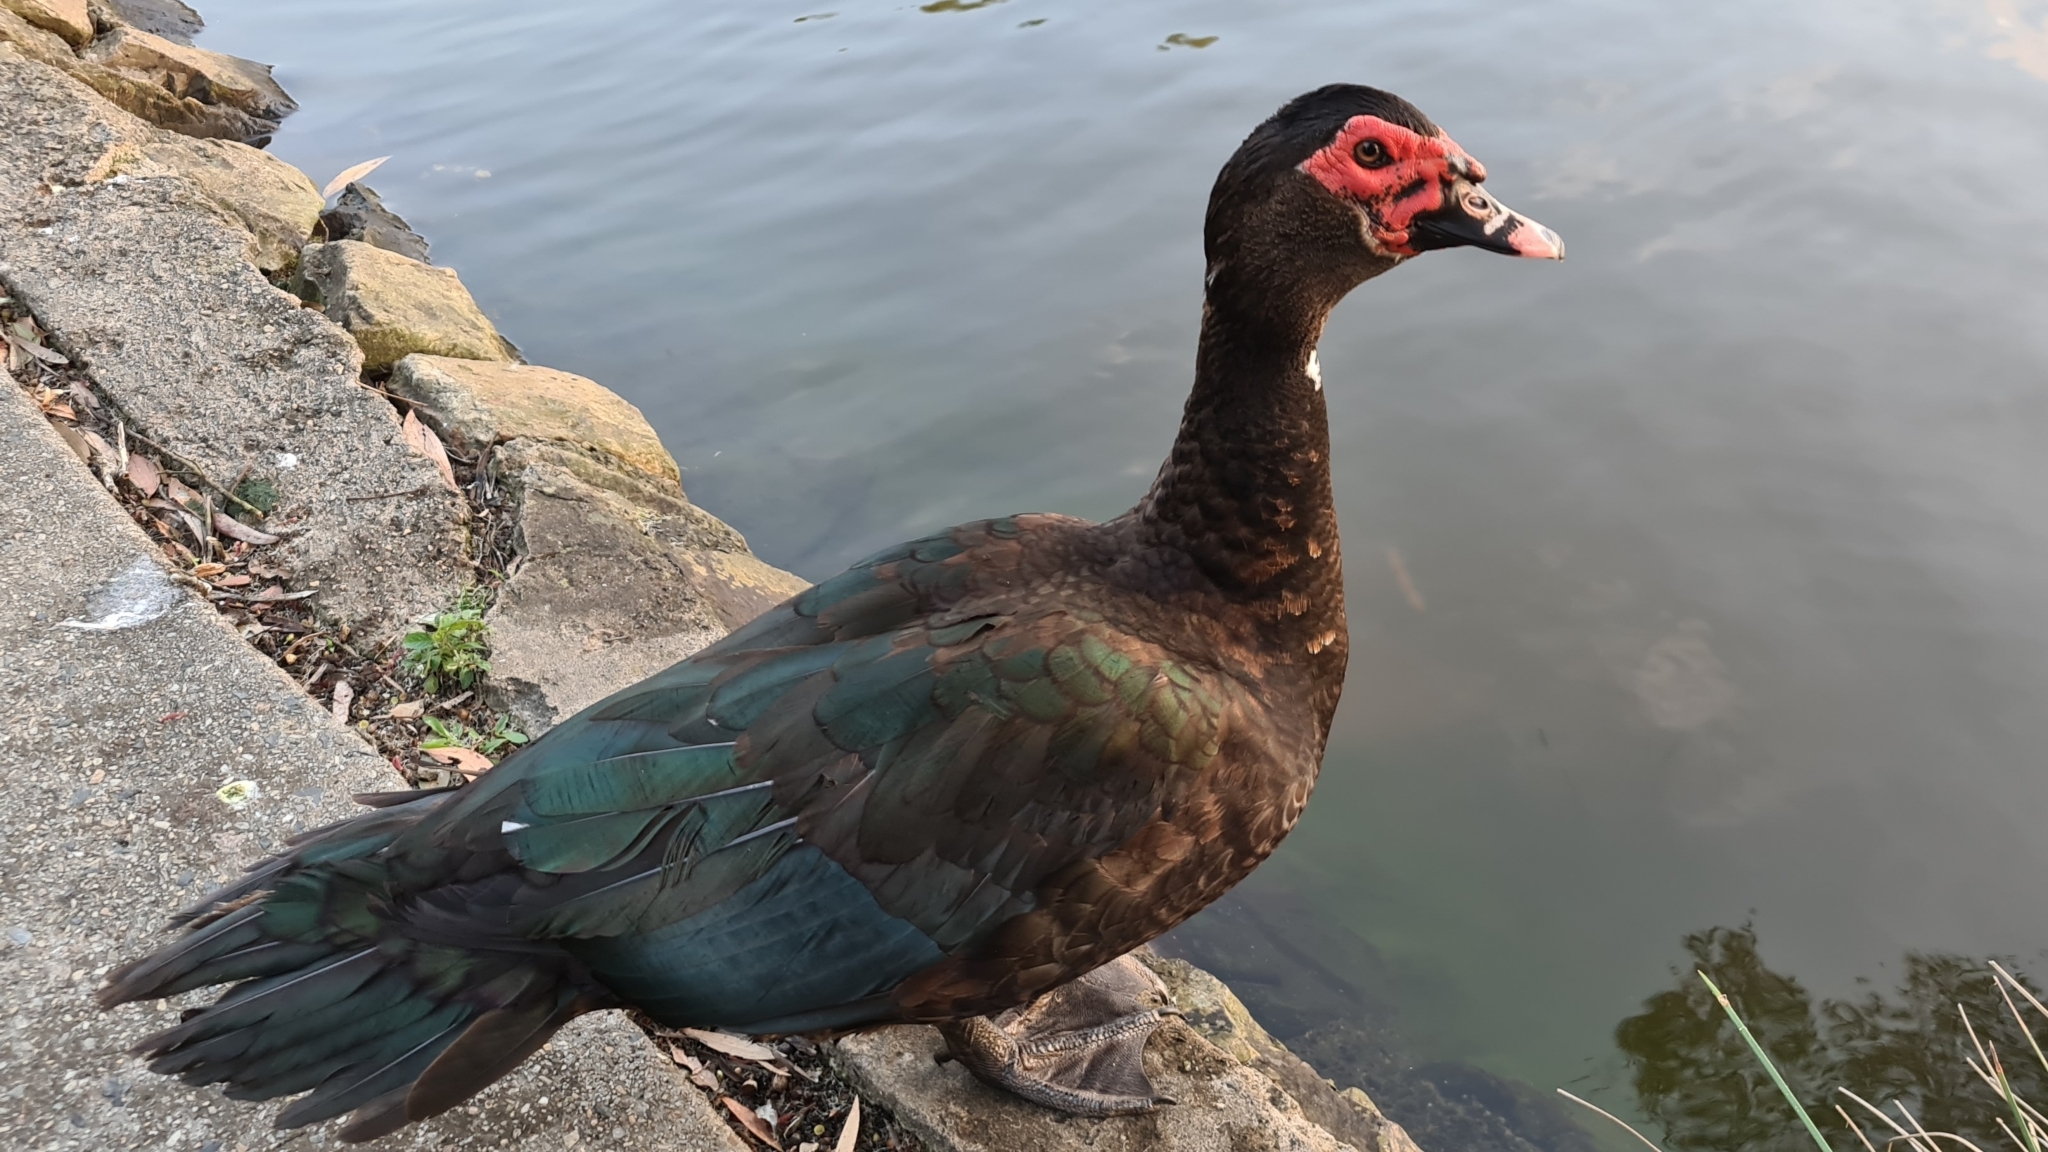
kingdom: Animalia
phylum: Chordata
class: Aves
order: Anseriformes
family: Anatidae
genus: Cairina
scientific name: Cairina moschata
